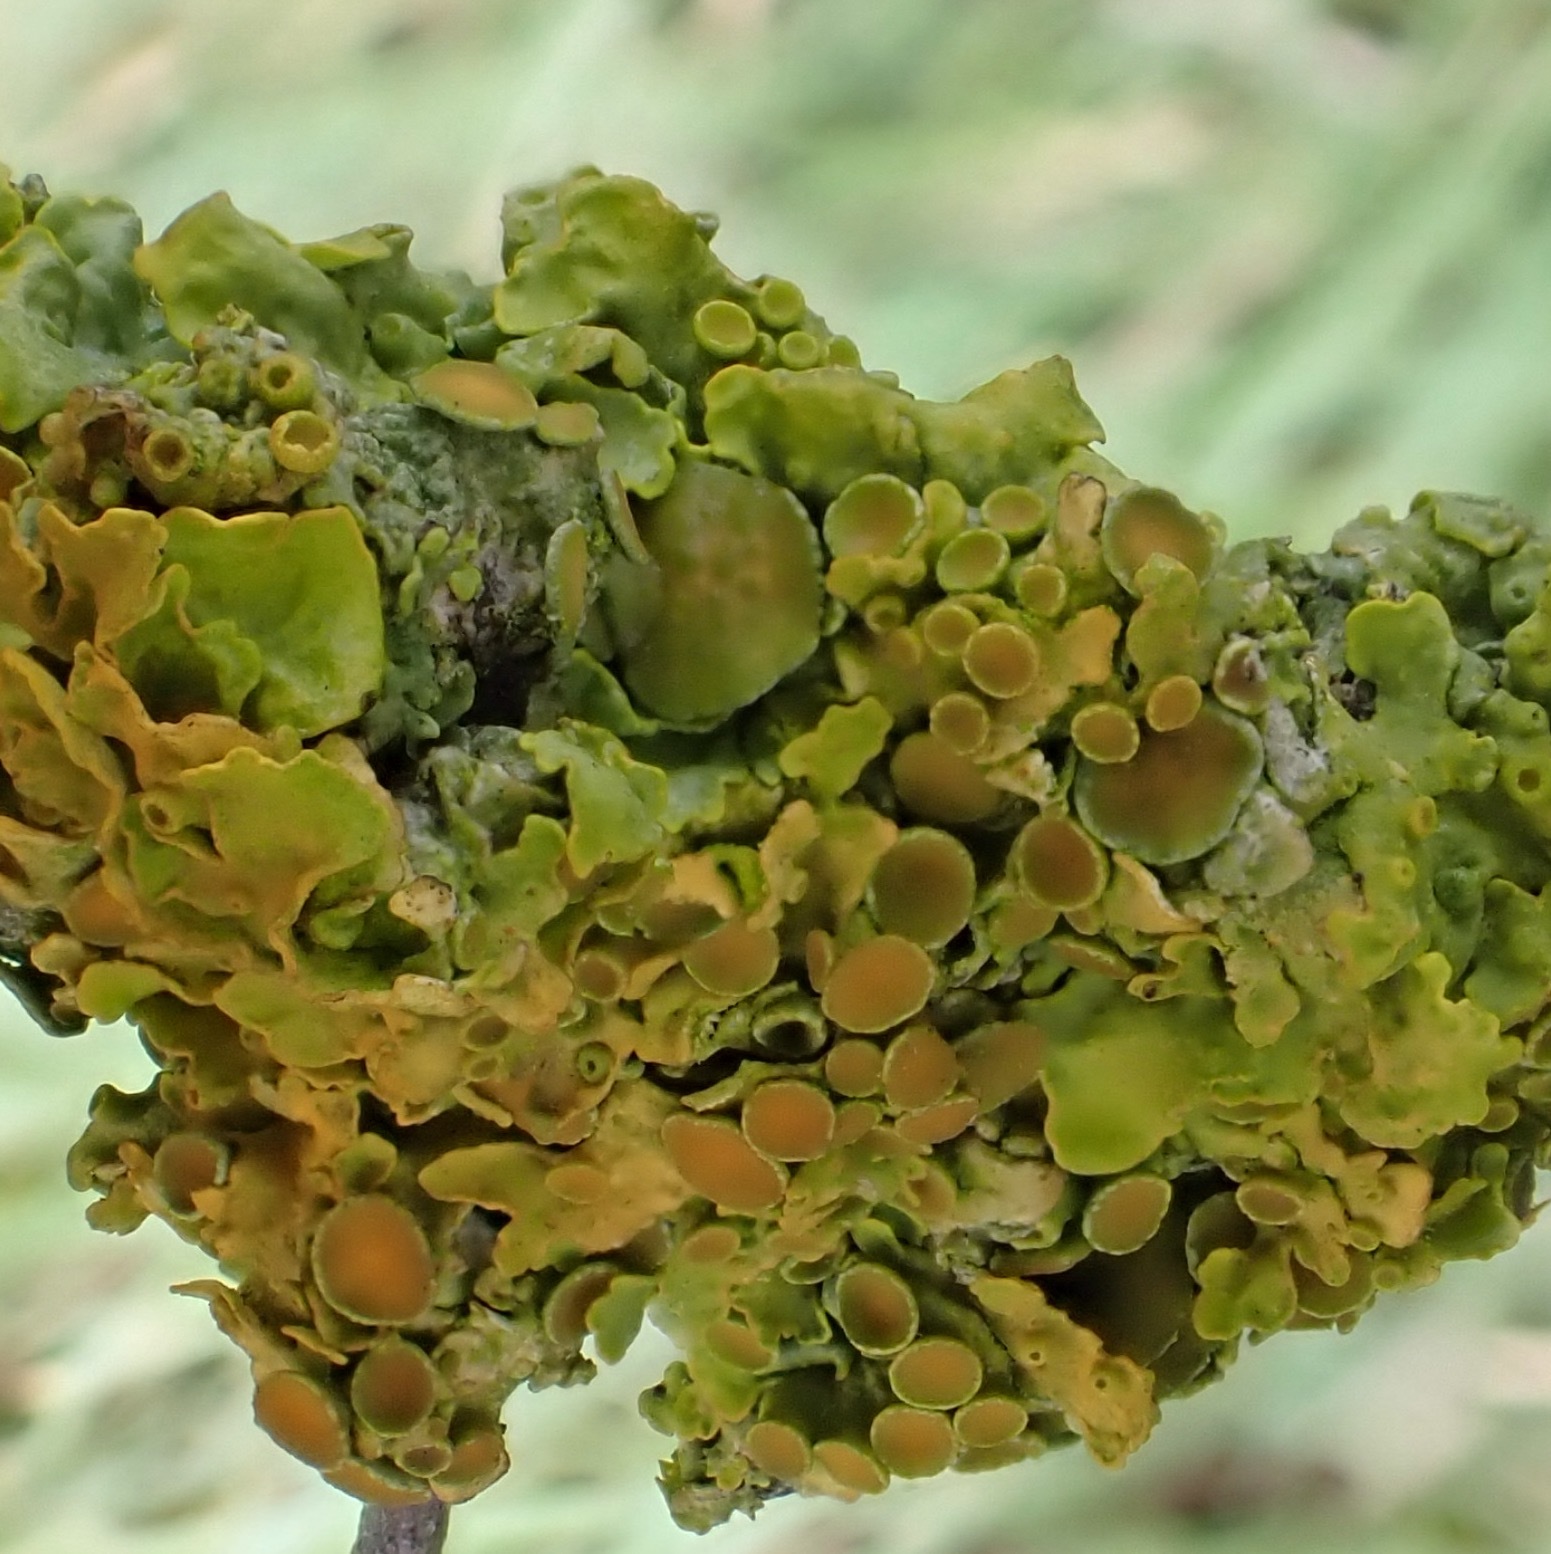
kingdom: Fungi
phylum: Ascomycota
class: Lecanoromycetes
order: Teloschistales
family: Teloschistaceae
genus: Xanthoria
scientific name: Xanthoria parietina
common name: Common orange lichen
